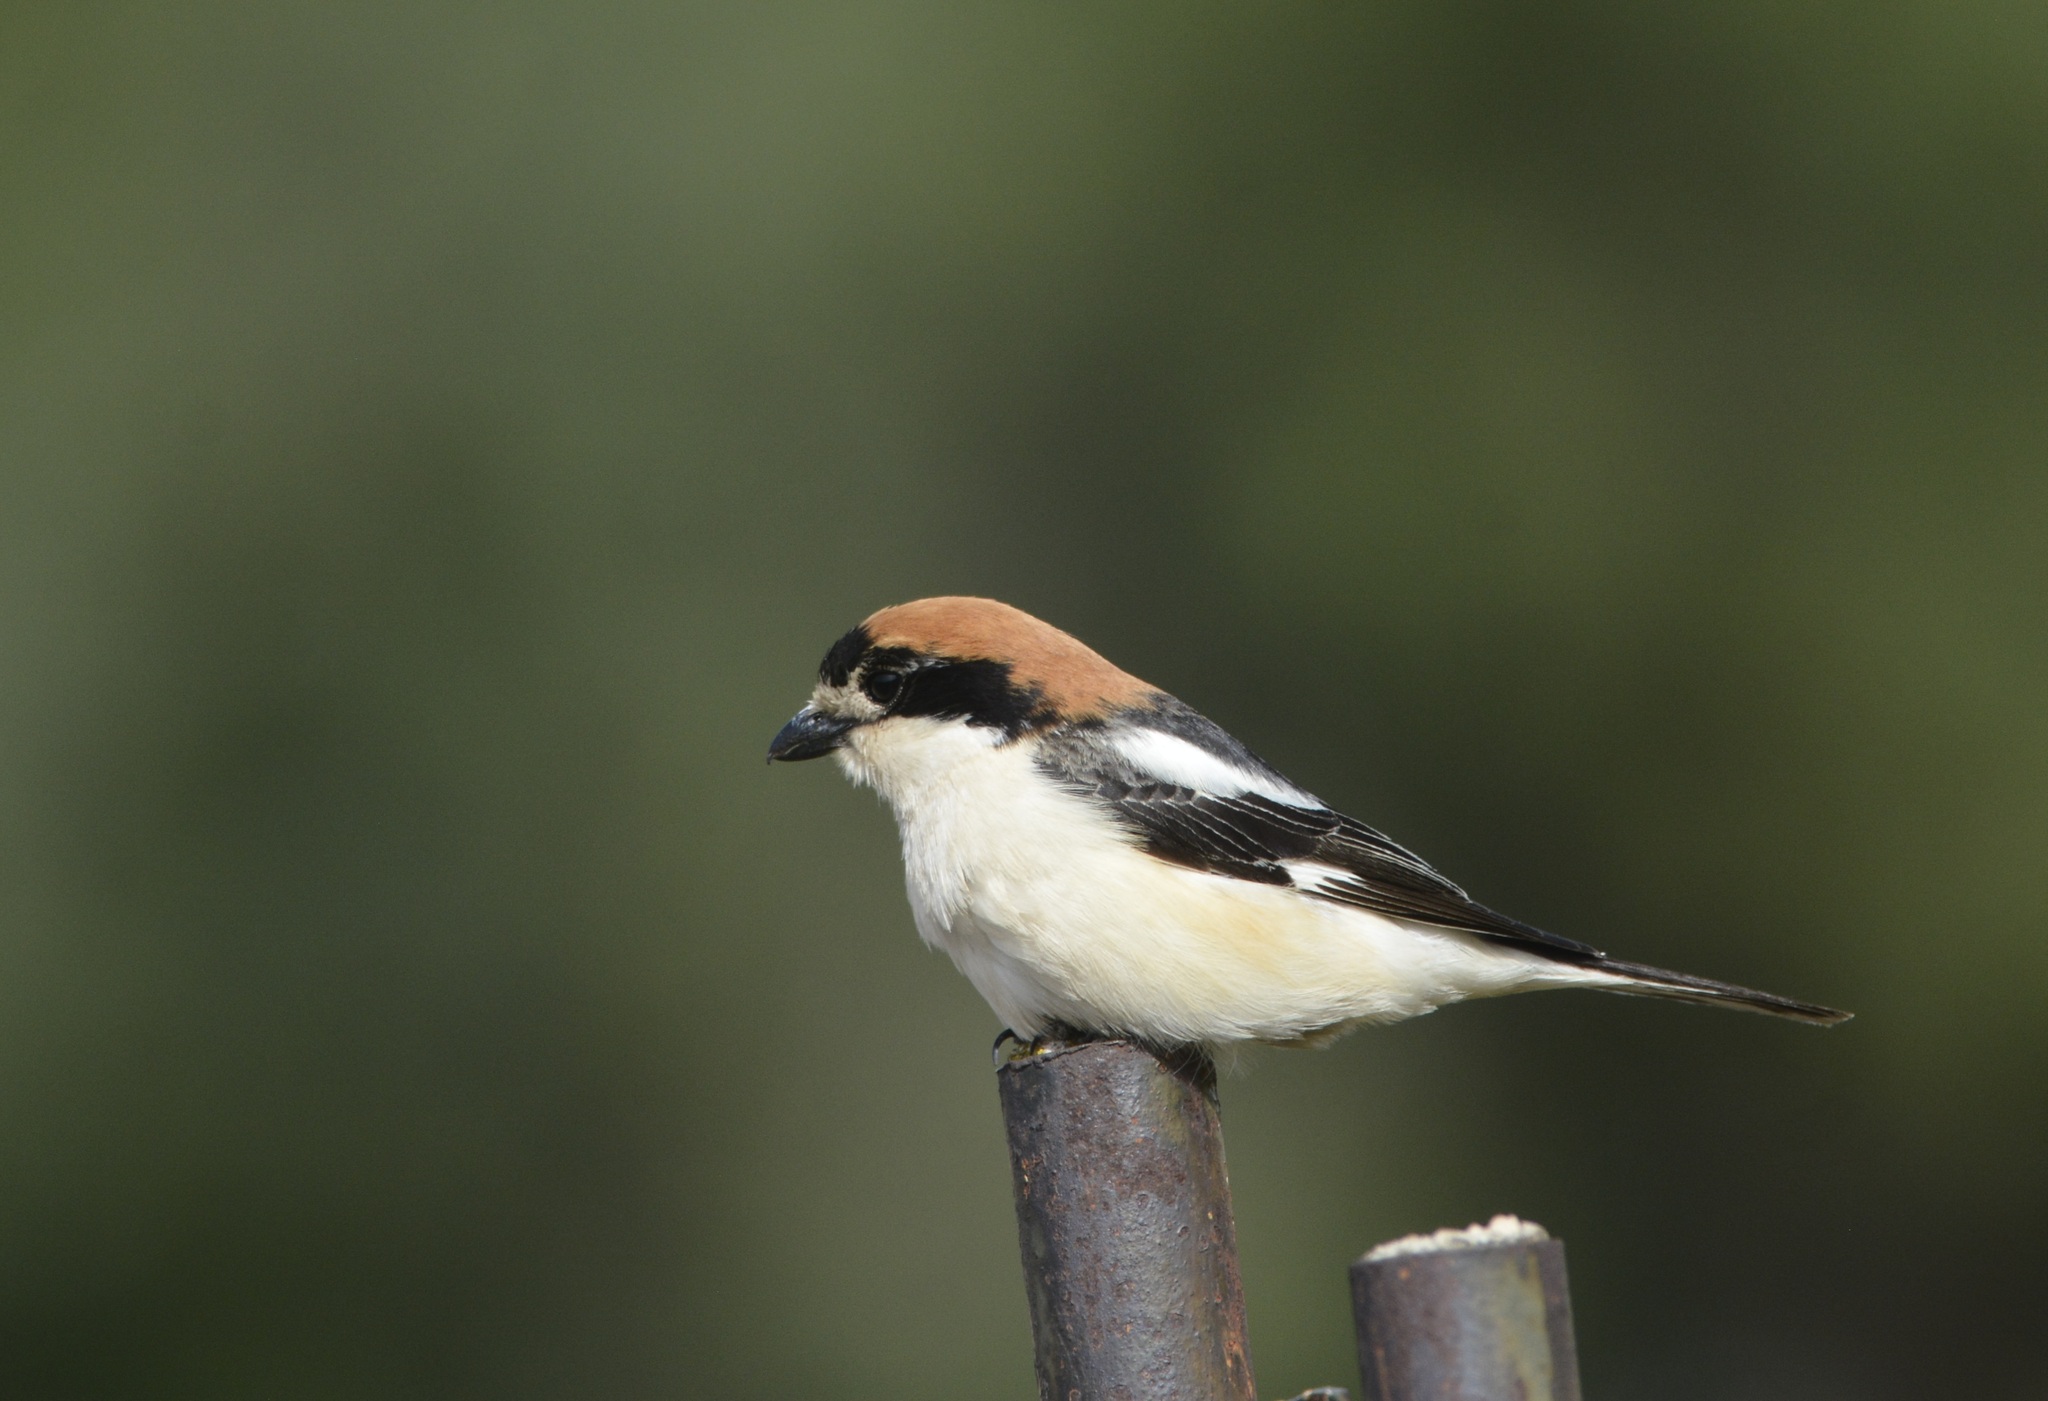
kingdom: Animalia
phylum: Chordata
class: Aves
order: Passeriformes
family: Laniidae
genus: Lanius
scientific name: Lanius senator
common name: Woodchat shrike
